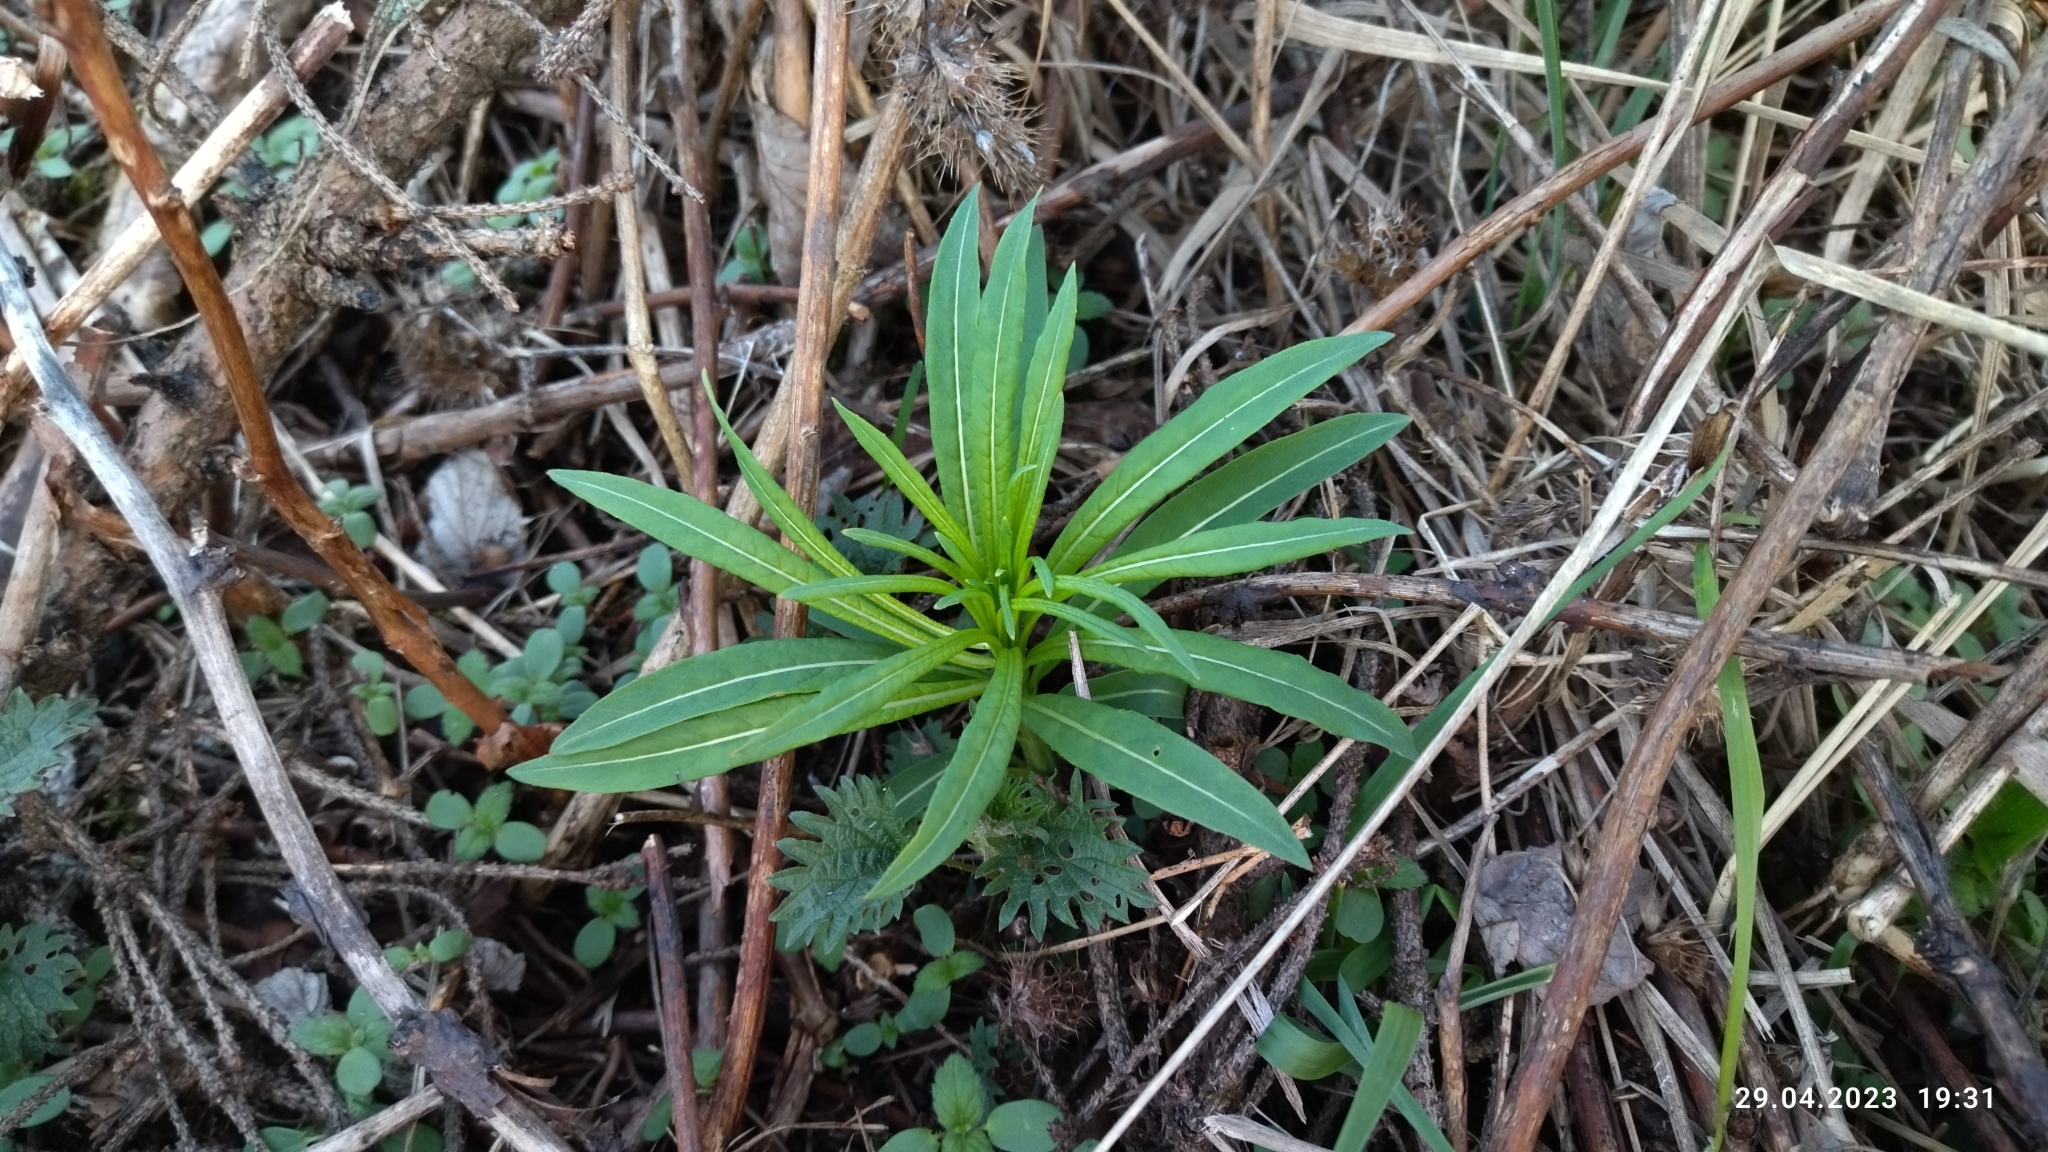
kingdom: Plantae
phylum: Tracheophyta
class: Magnoliopsida
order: Myrtales
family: Onagraceae
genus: Chamaenerion
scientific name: Chamaenerion angustifolium
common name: Fireweed
